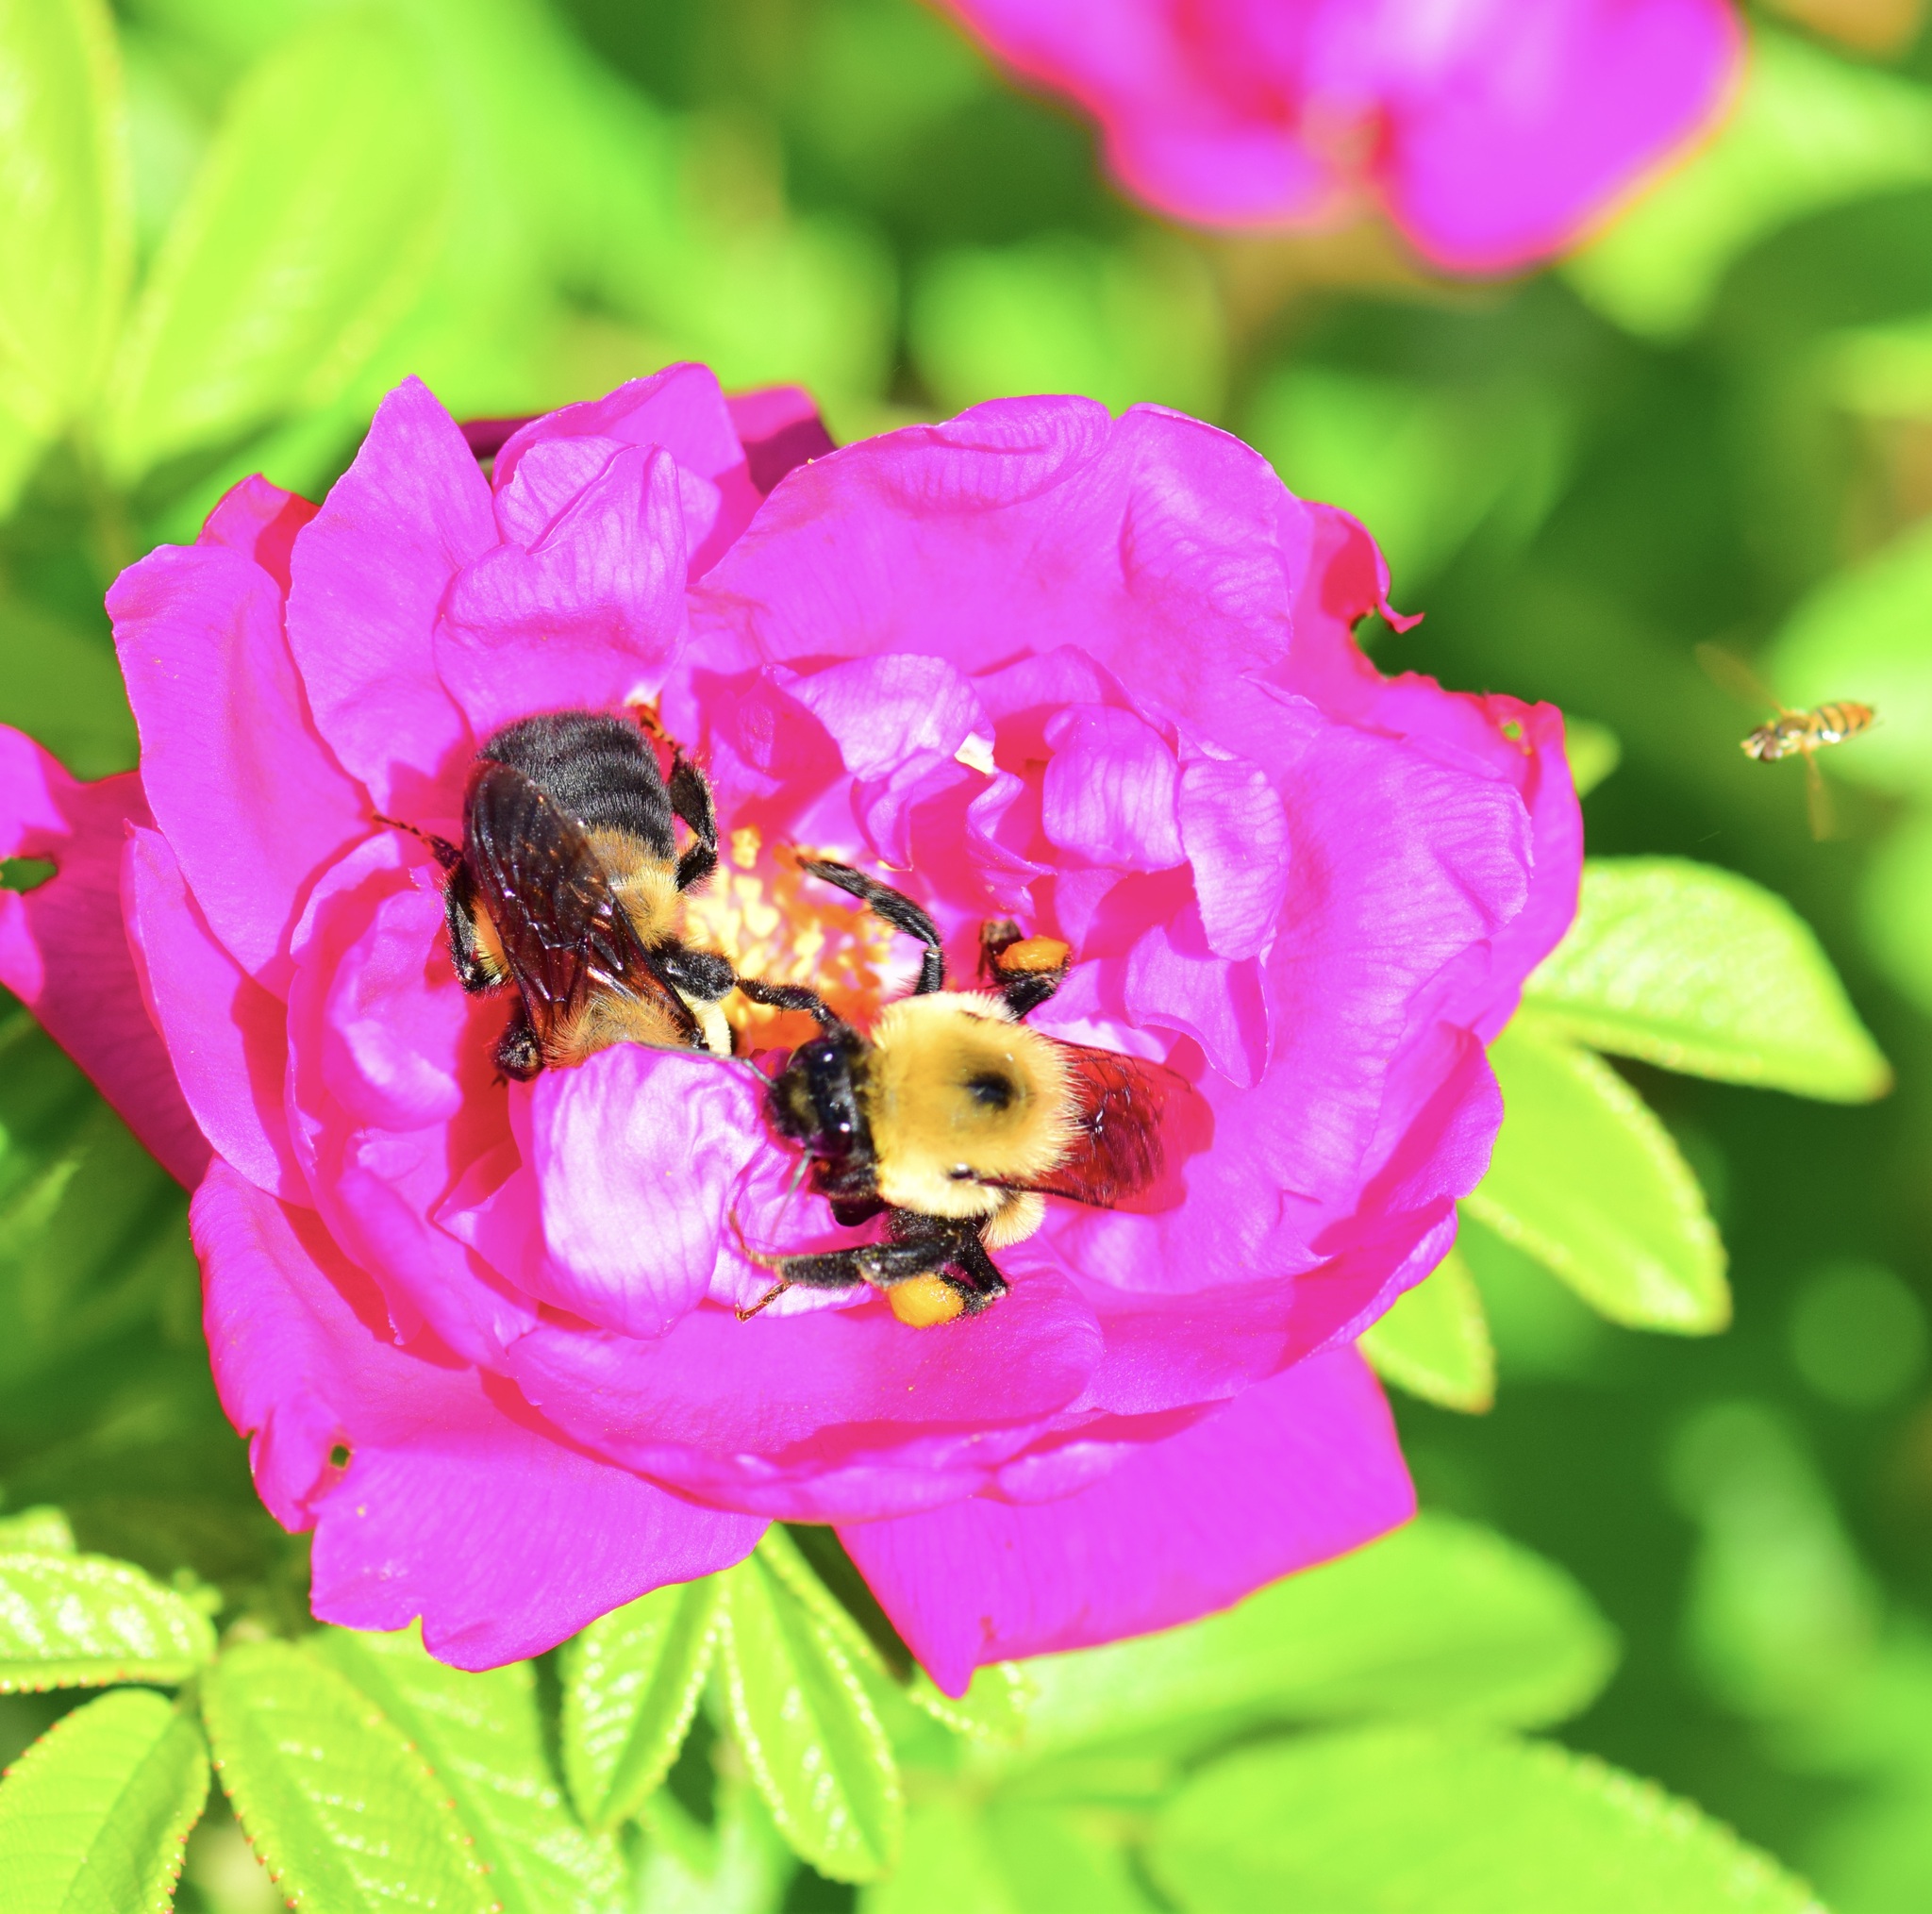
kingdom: Animalia
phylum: Arthropoda
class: Insecta
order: Hymenoptera
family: Apidae
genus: Bombus
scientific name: Bombus griseocollis
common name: Brown-belted bumble bee
